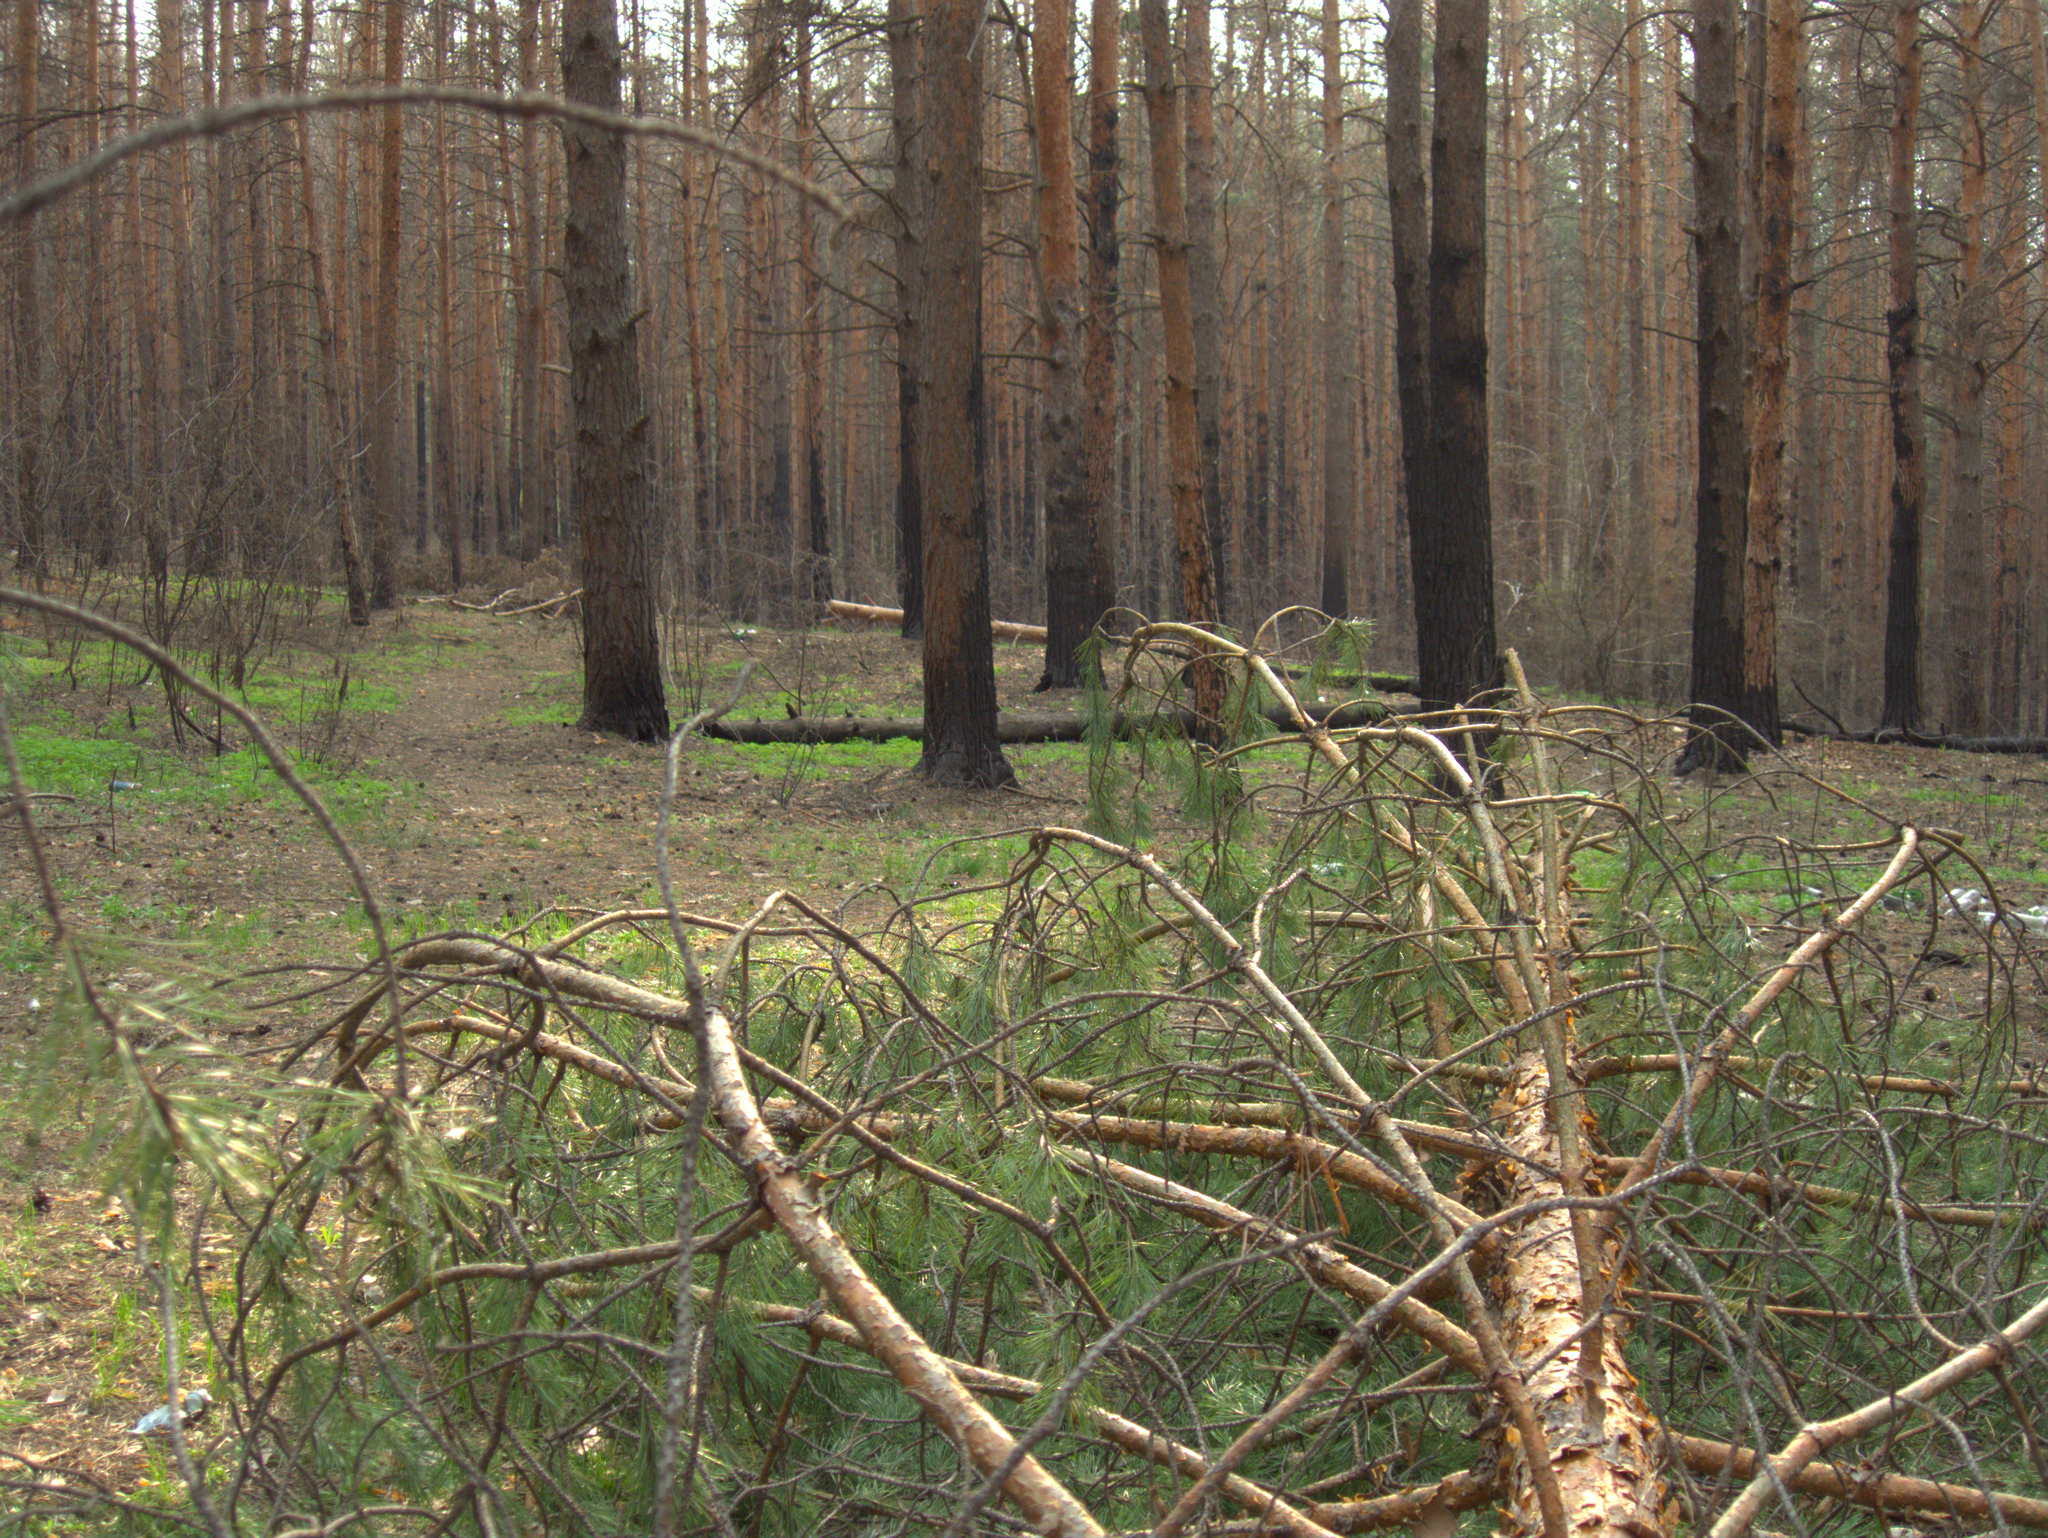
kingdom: Plantae
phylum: Tracheophyta
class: Pinopsida
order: Pinales
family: Pinaceae
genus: Pinus
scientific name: Pinus sylvestris
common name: Scots pine
